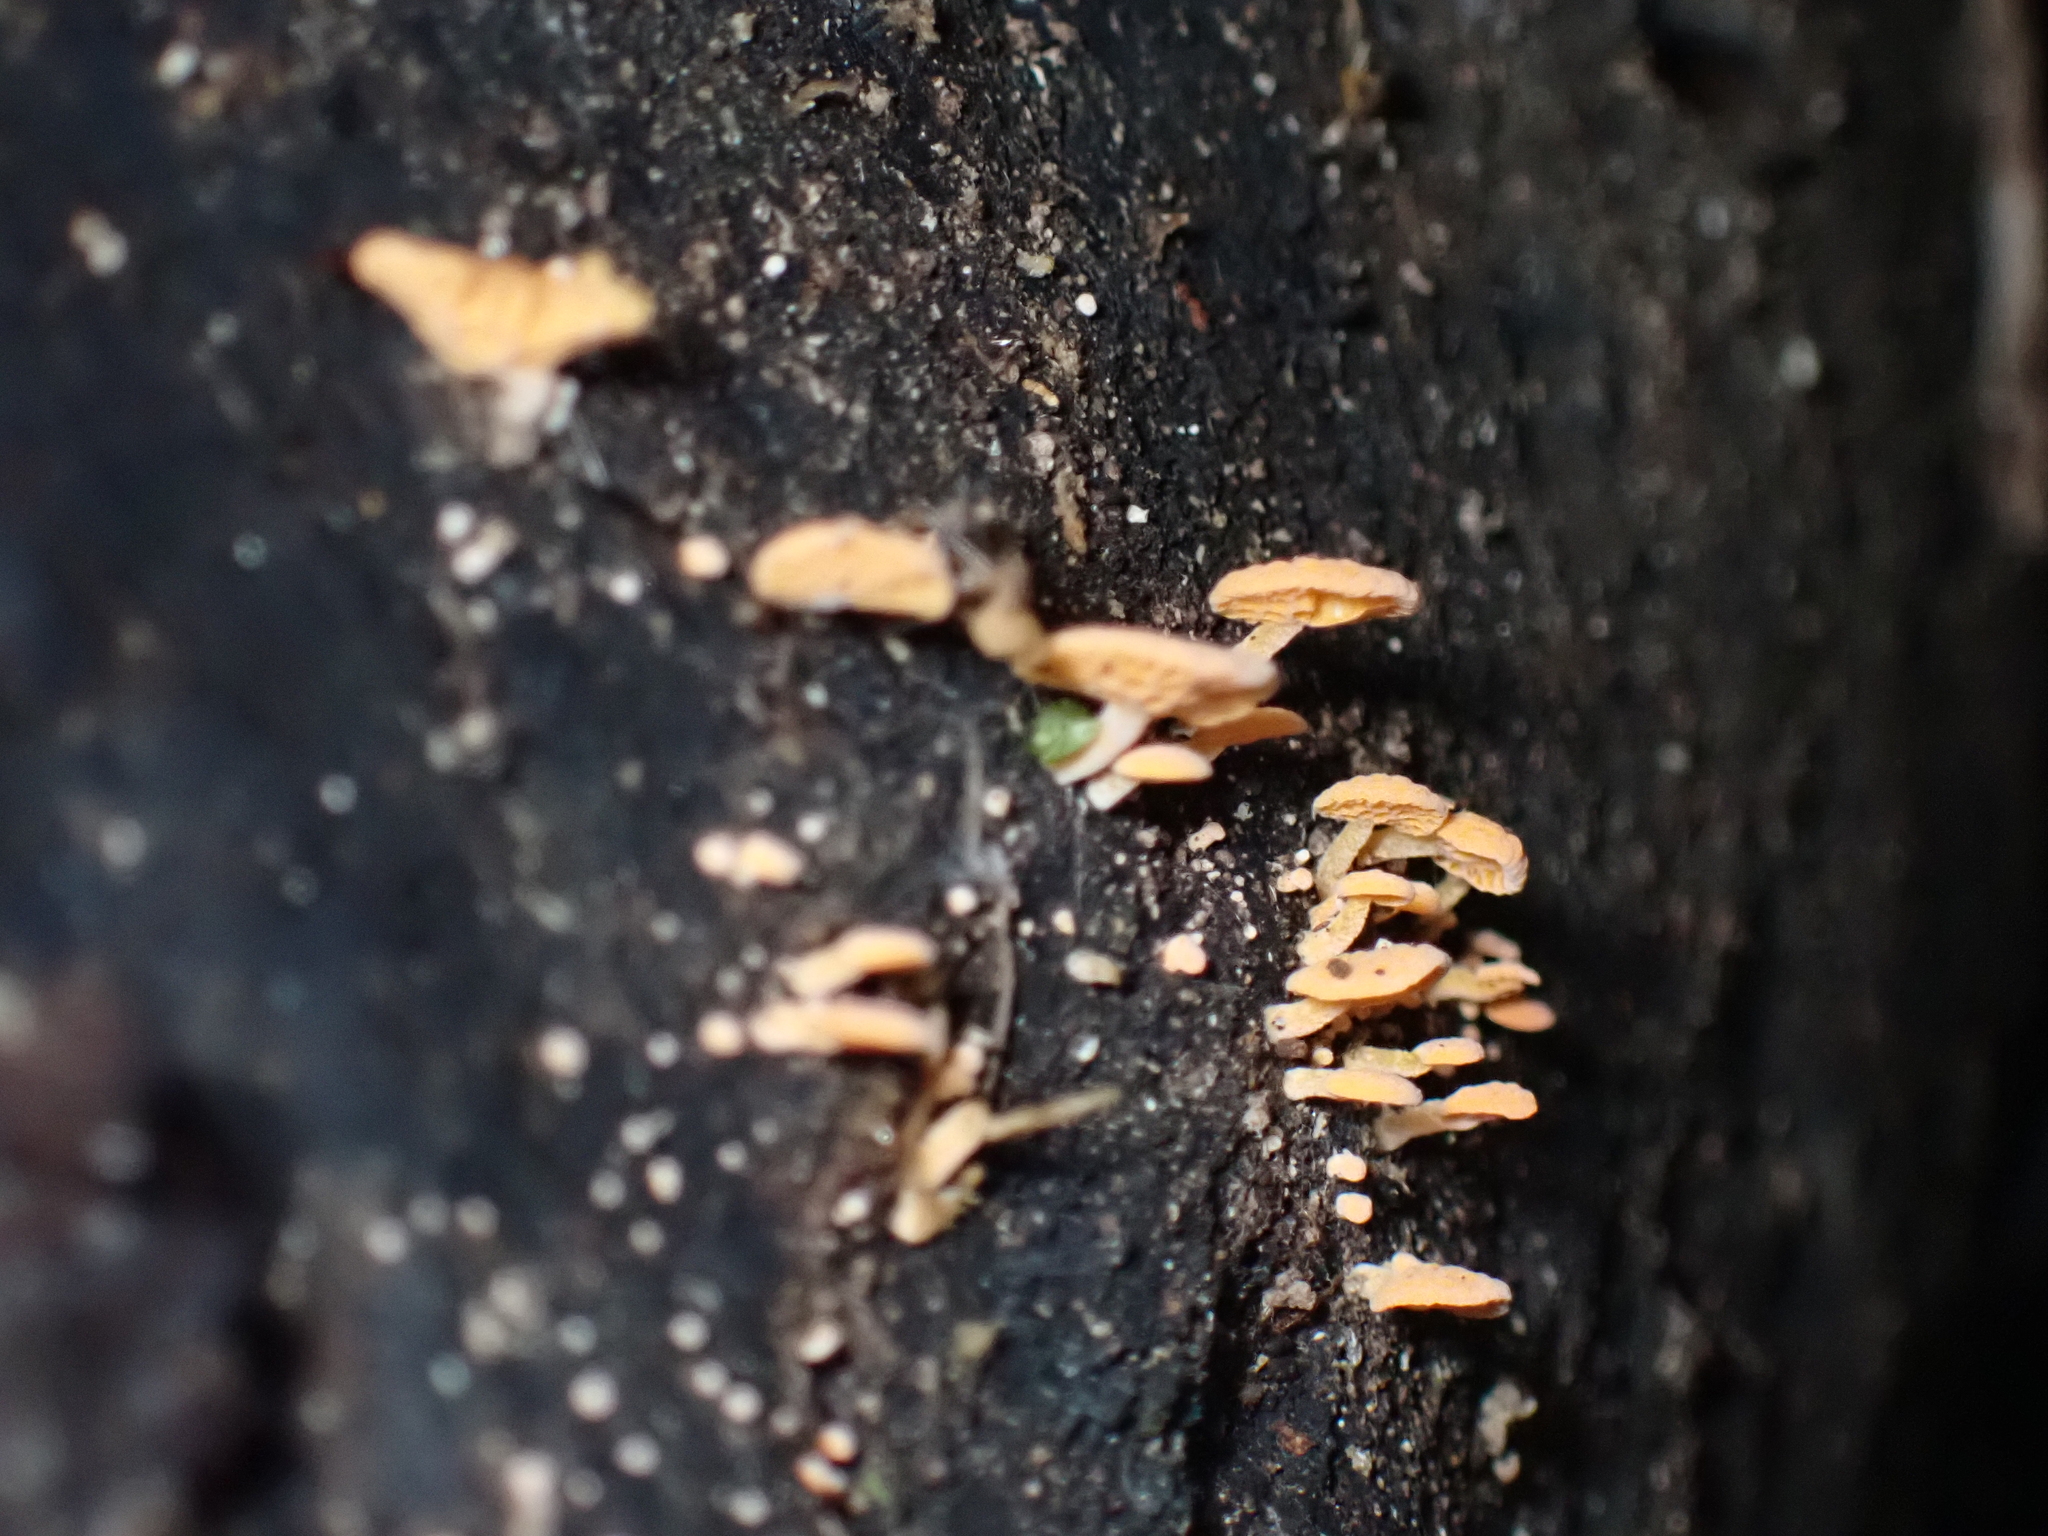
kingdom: Fungi
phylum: Basidiomycota
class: Agaricomycetes
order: Agaricales
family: Mycenaceae
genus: Favolaschia
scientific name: Favolaschia claudopus
